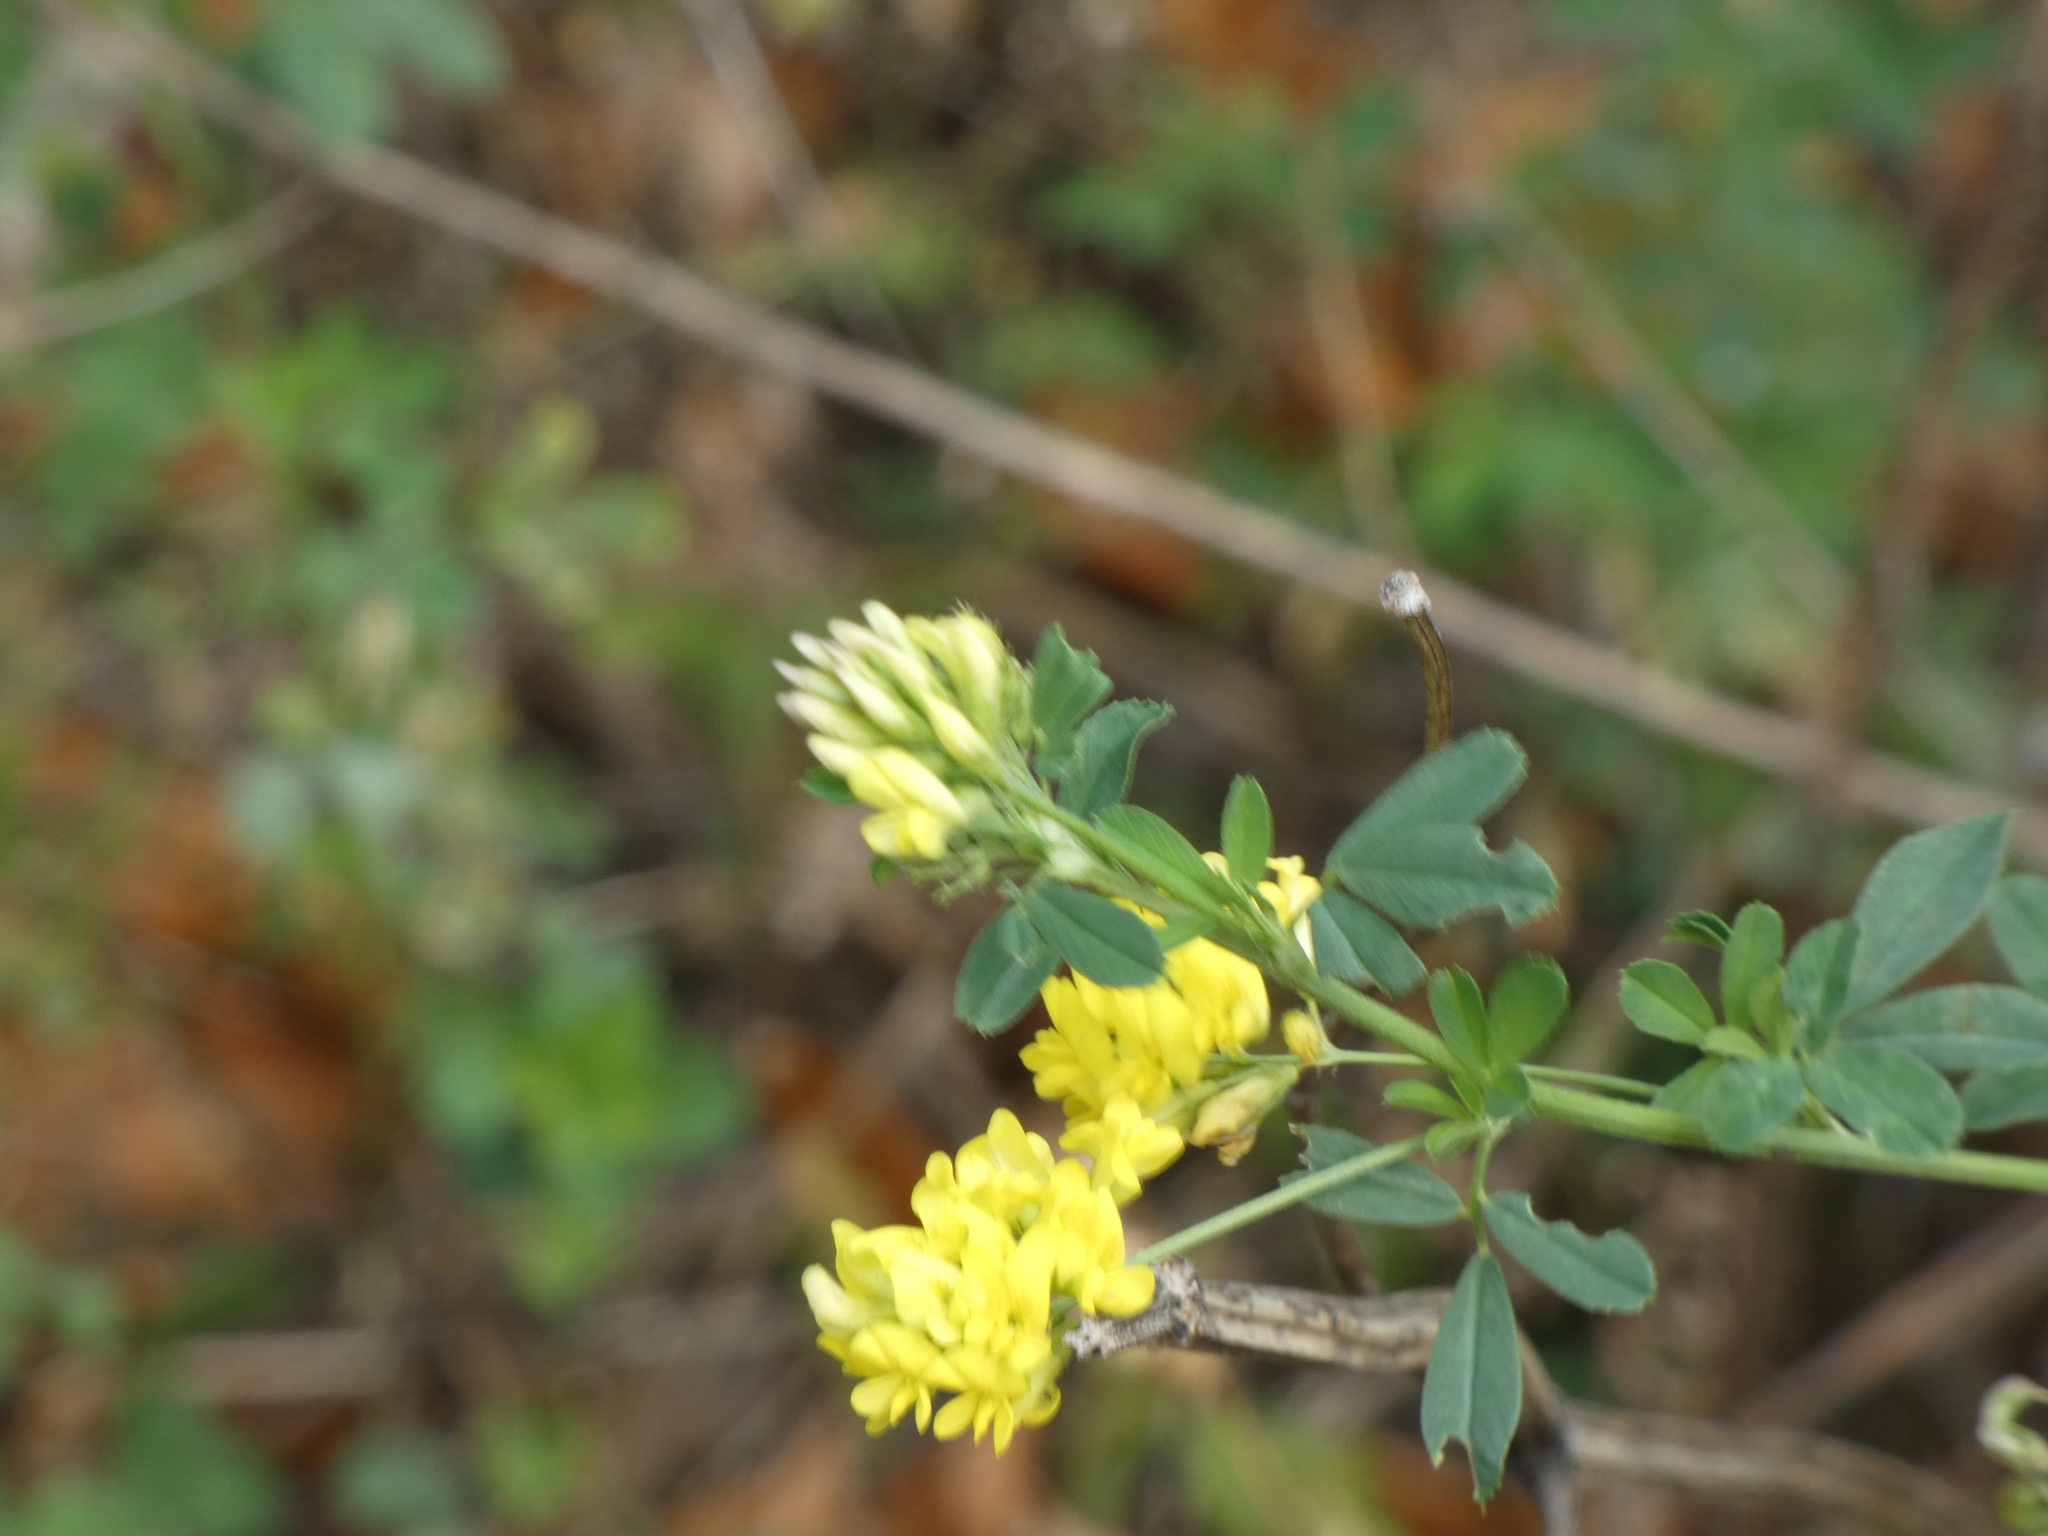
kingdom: Plantae
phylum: Tracheophyta
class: Magnoliopsida
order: Fabales
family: Fabaceae
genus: Medicago
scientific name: Medicago falcata
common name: Sickle medick
